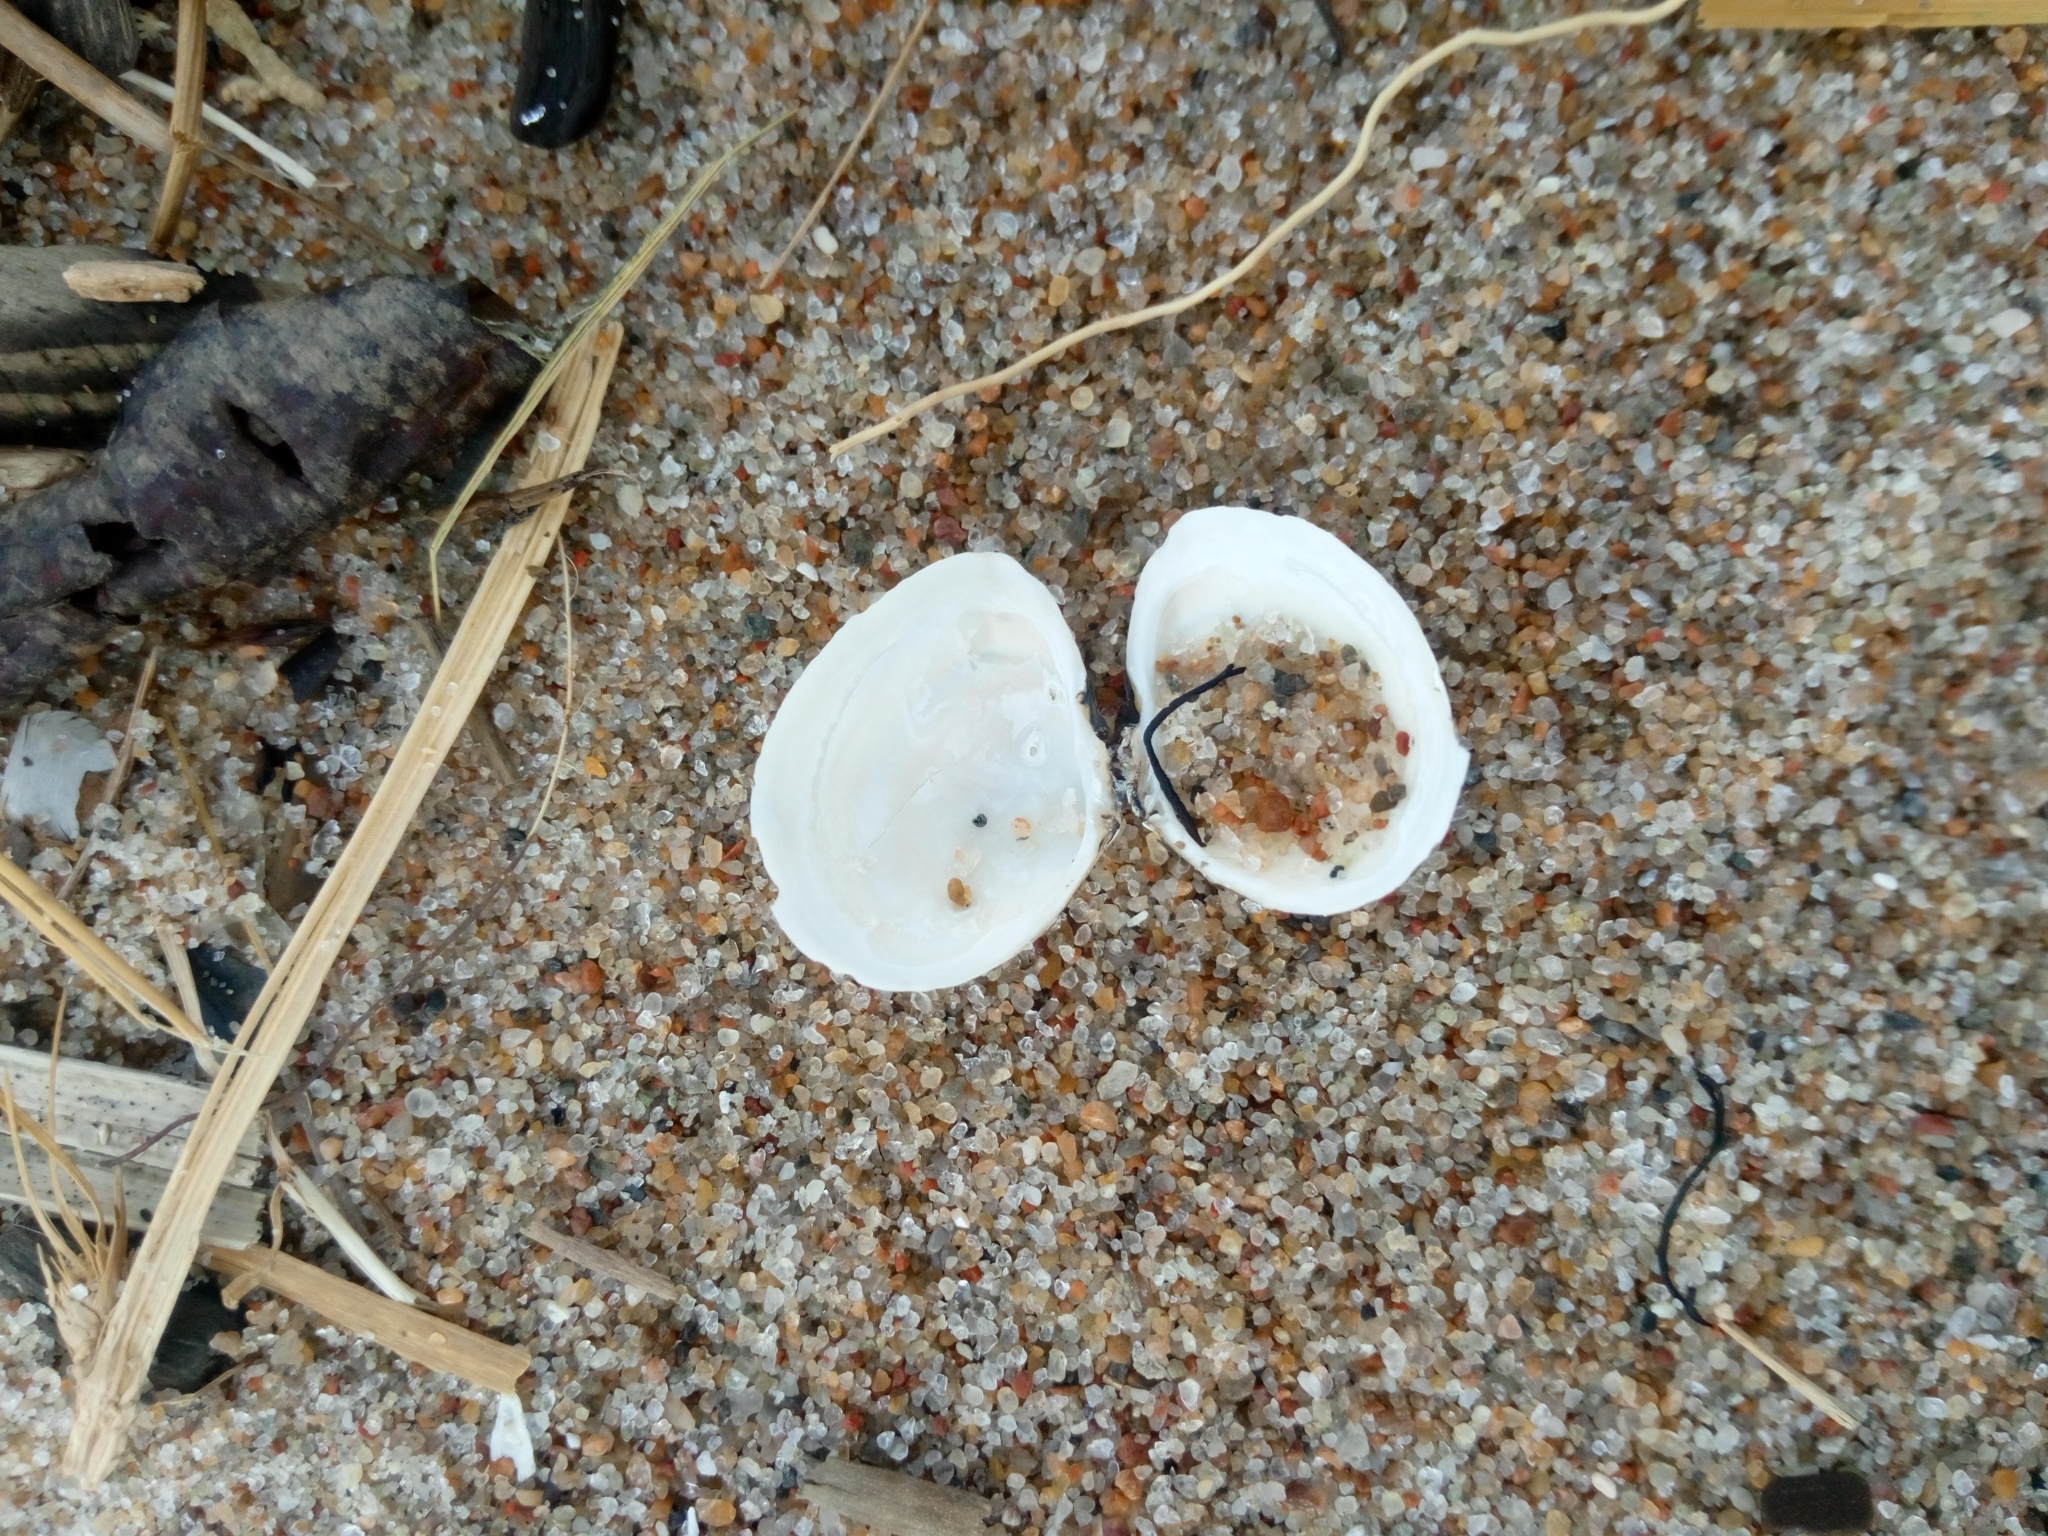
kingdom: Animalia
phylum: Mollusca
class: Bivalvia
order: Cardiida
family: Tellinidae
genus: Macoma
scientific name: Macoma balthica
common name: Baltic tellin
